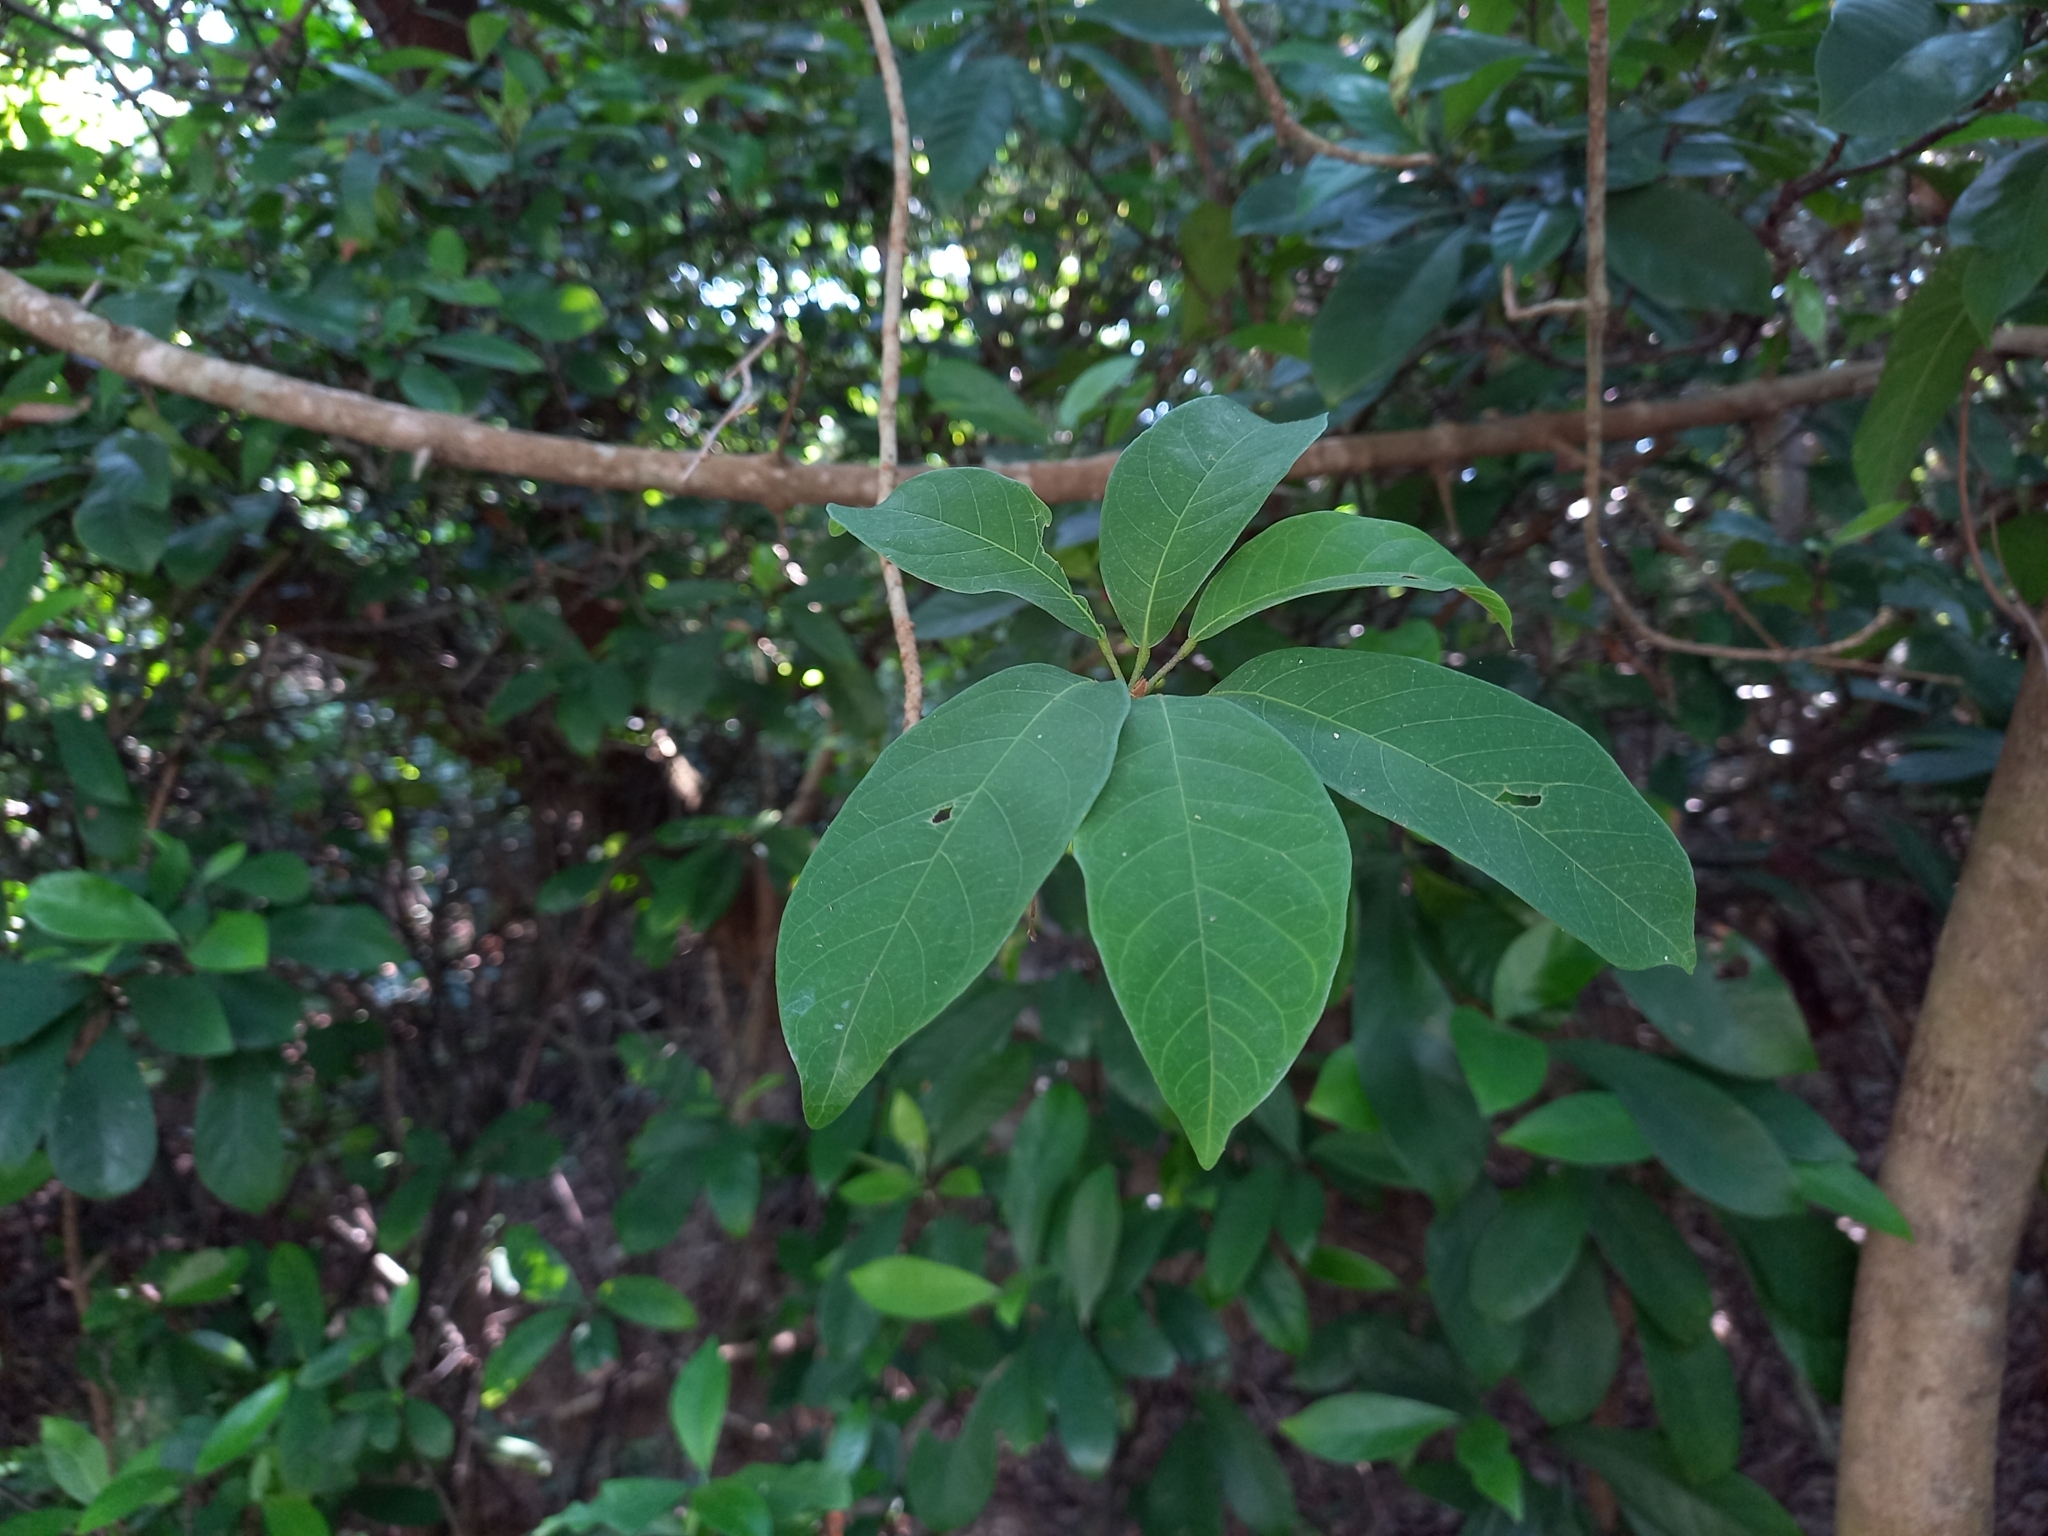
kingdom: Plantae
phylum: Tracheophyta
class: Magnoliopsida
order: Malvales
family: Malvaceae
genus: Sterculia
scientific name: Sterculia lanceolata
